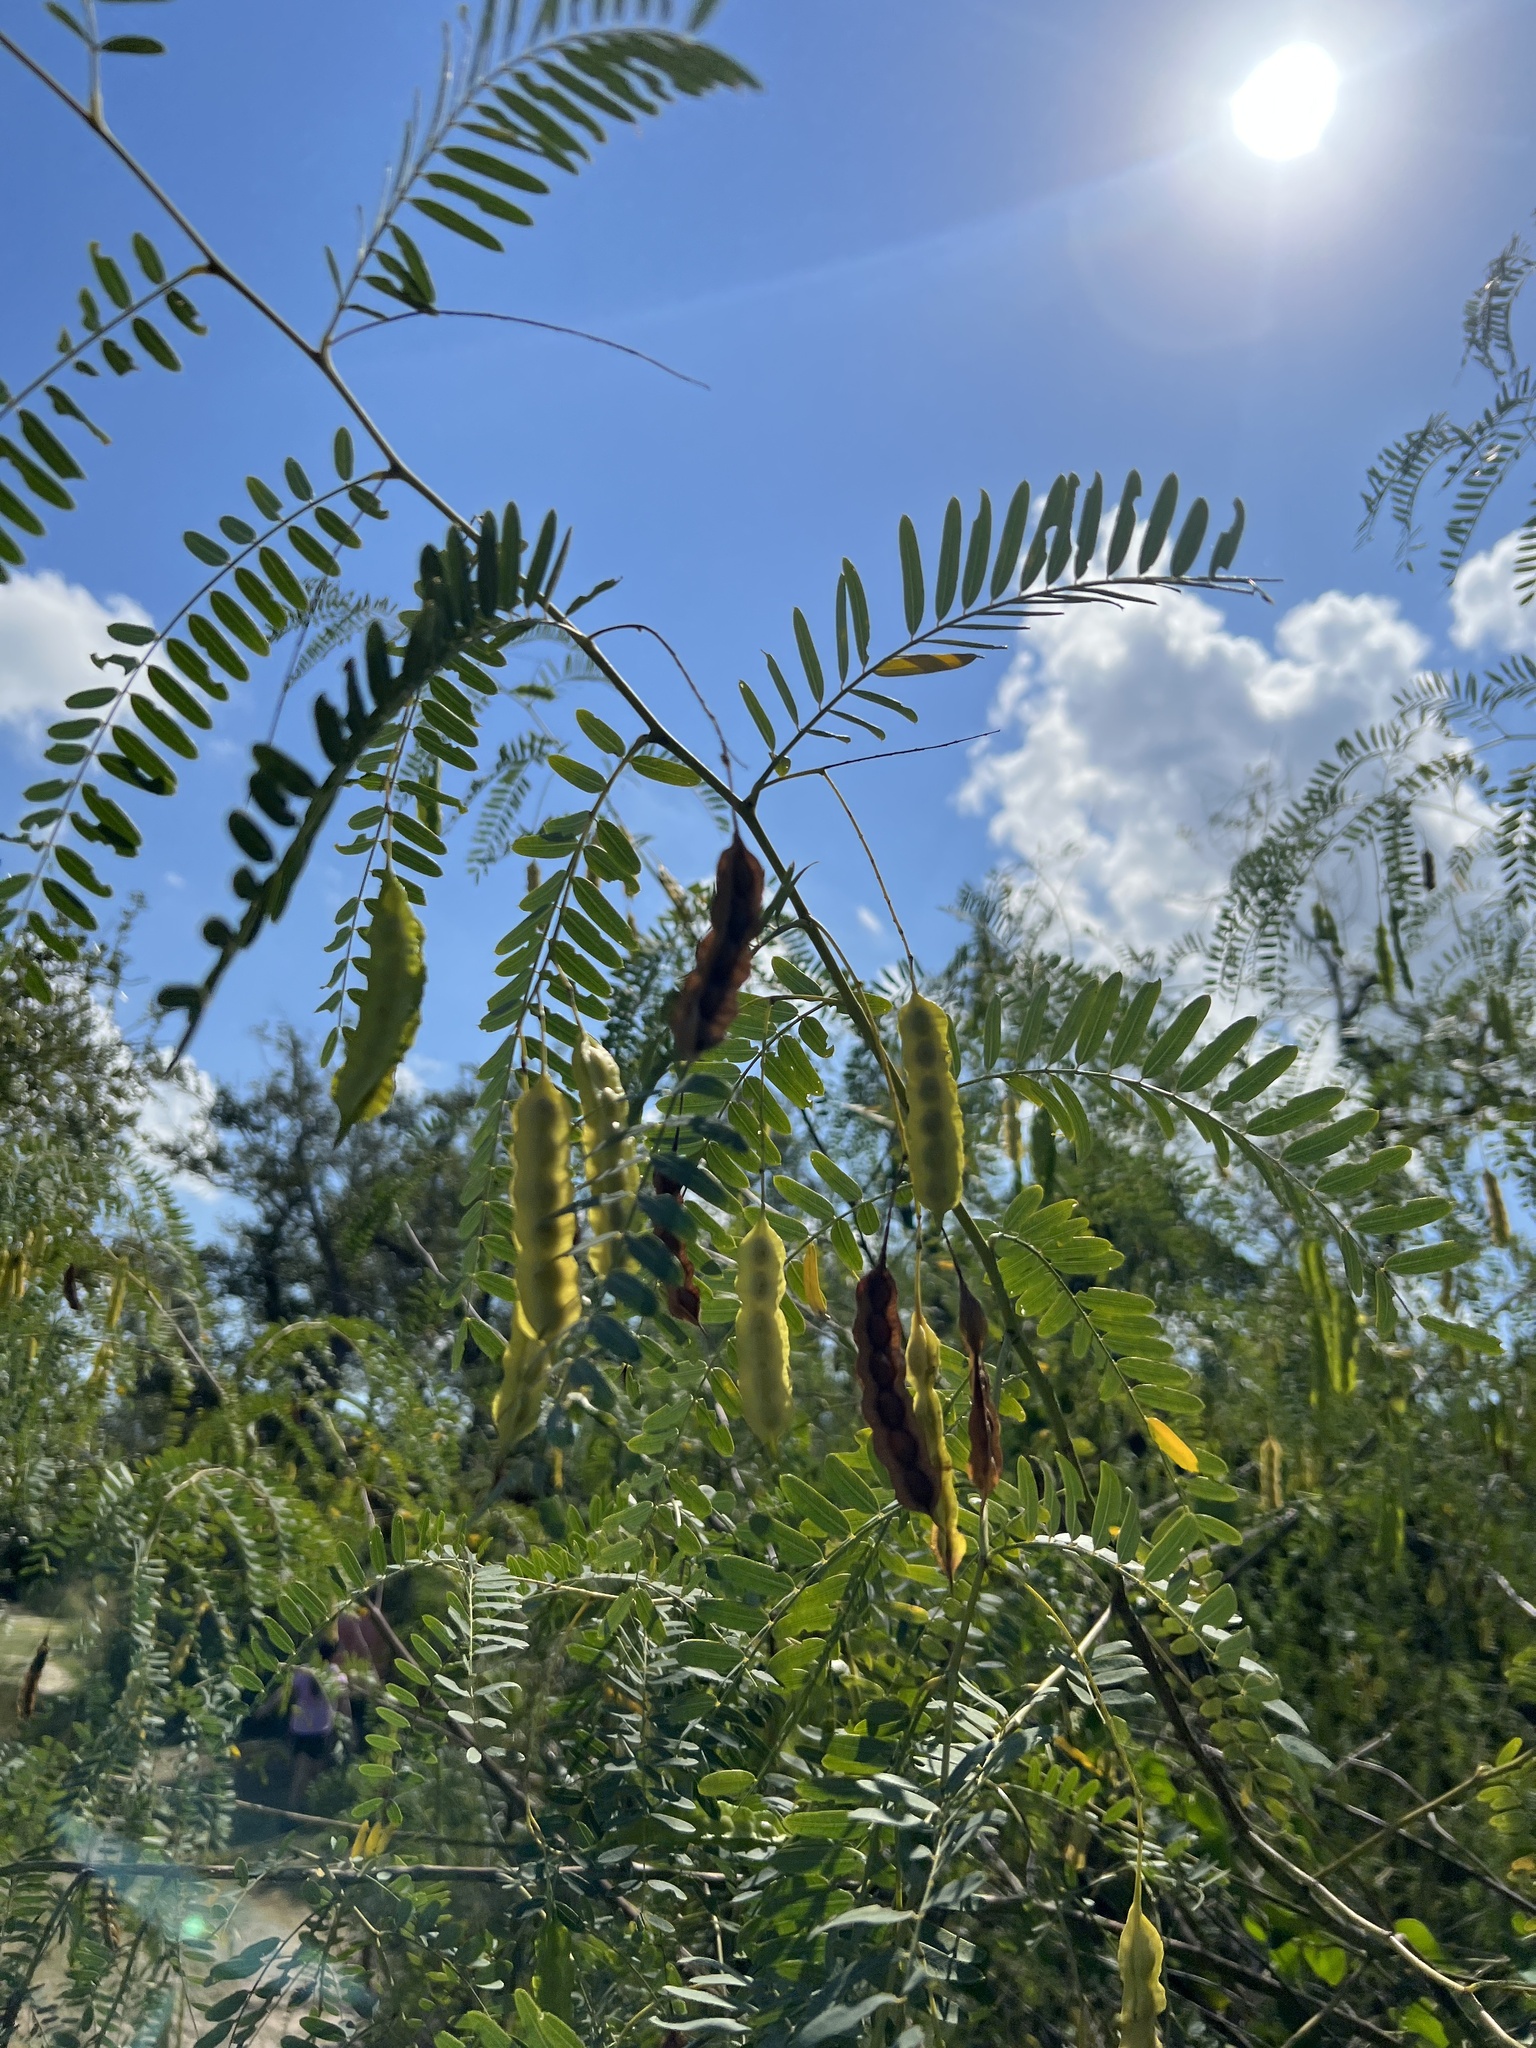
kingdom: Plantae
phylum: Tracheophyta
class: Magnoliopsida
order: Fabales
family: Fabaceae
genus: Sesbania
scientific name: Sesbania drummondii
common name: Poison-bean
